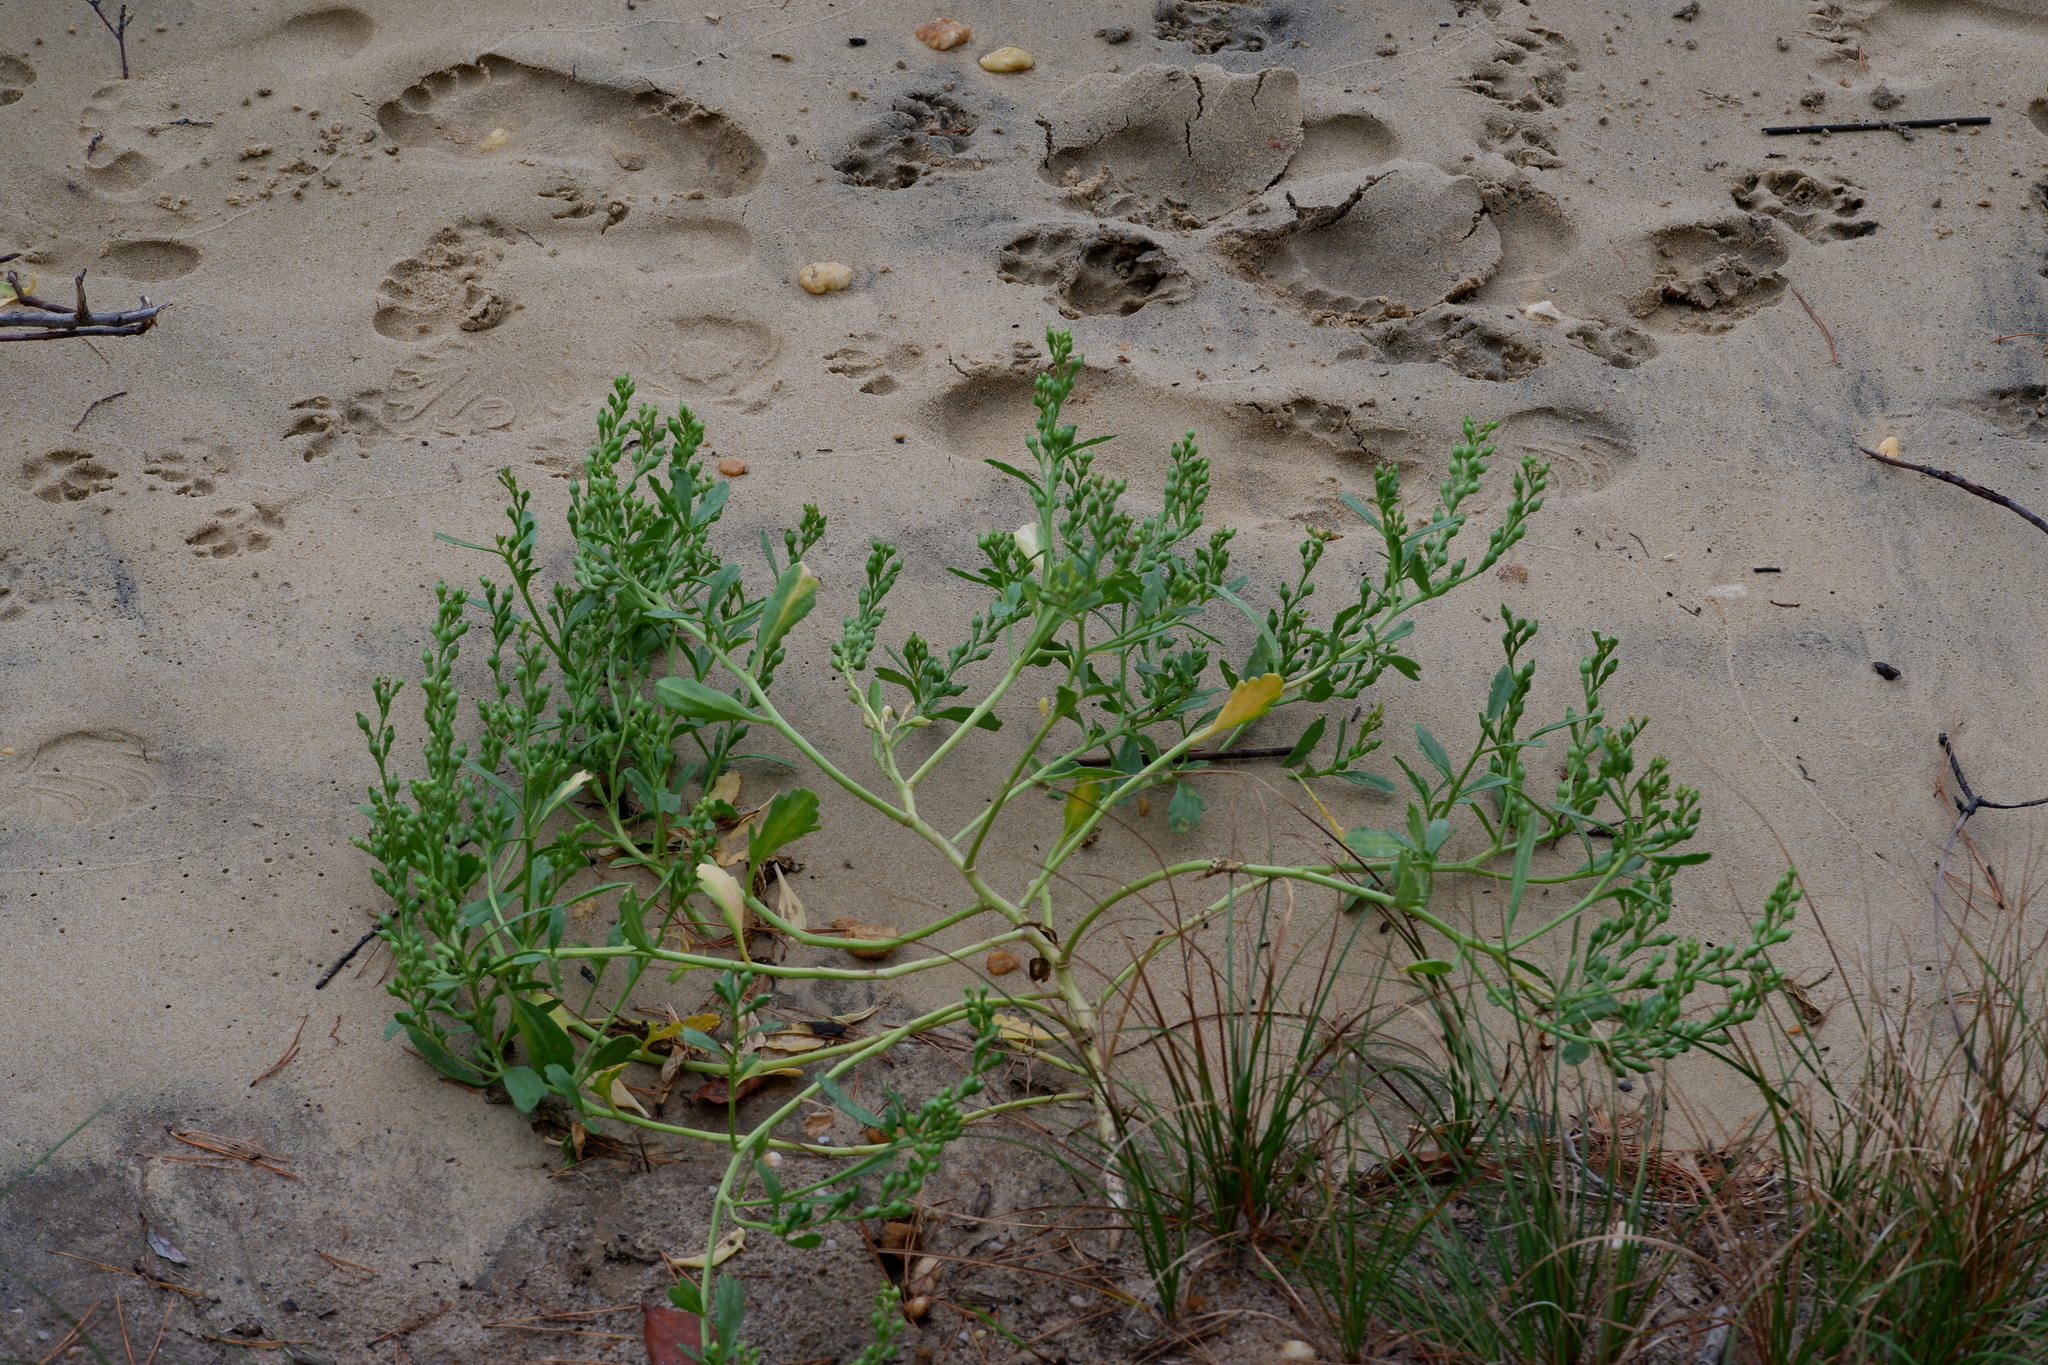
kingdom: Plantae
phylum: Tracheophyta
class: Magnoliopsida
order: Brassicales
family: Brassicaceae
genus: Cakile
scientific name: Cakile edentula
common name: American sea rocket
